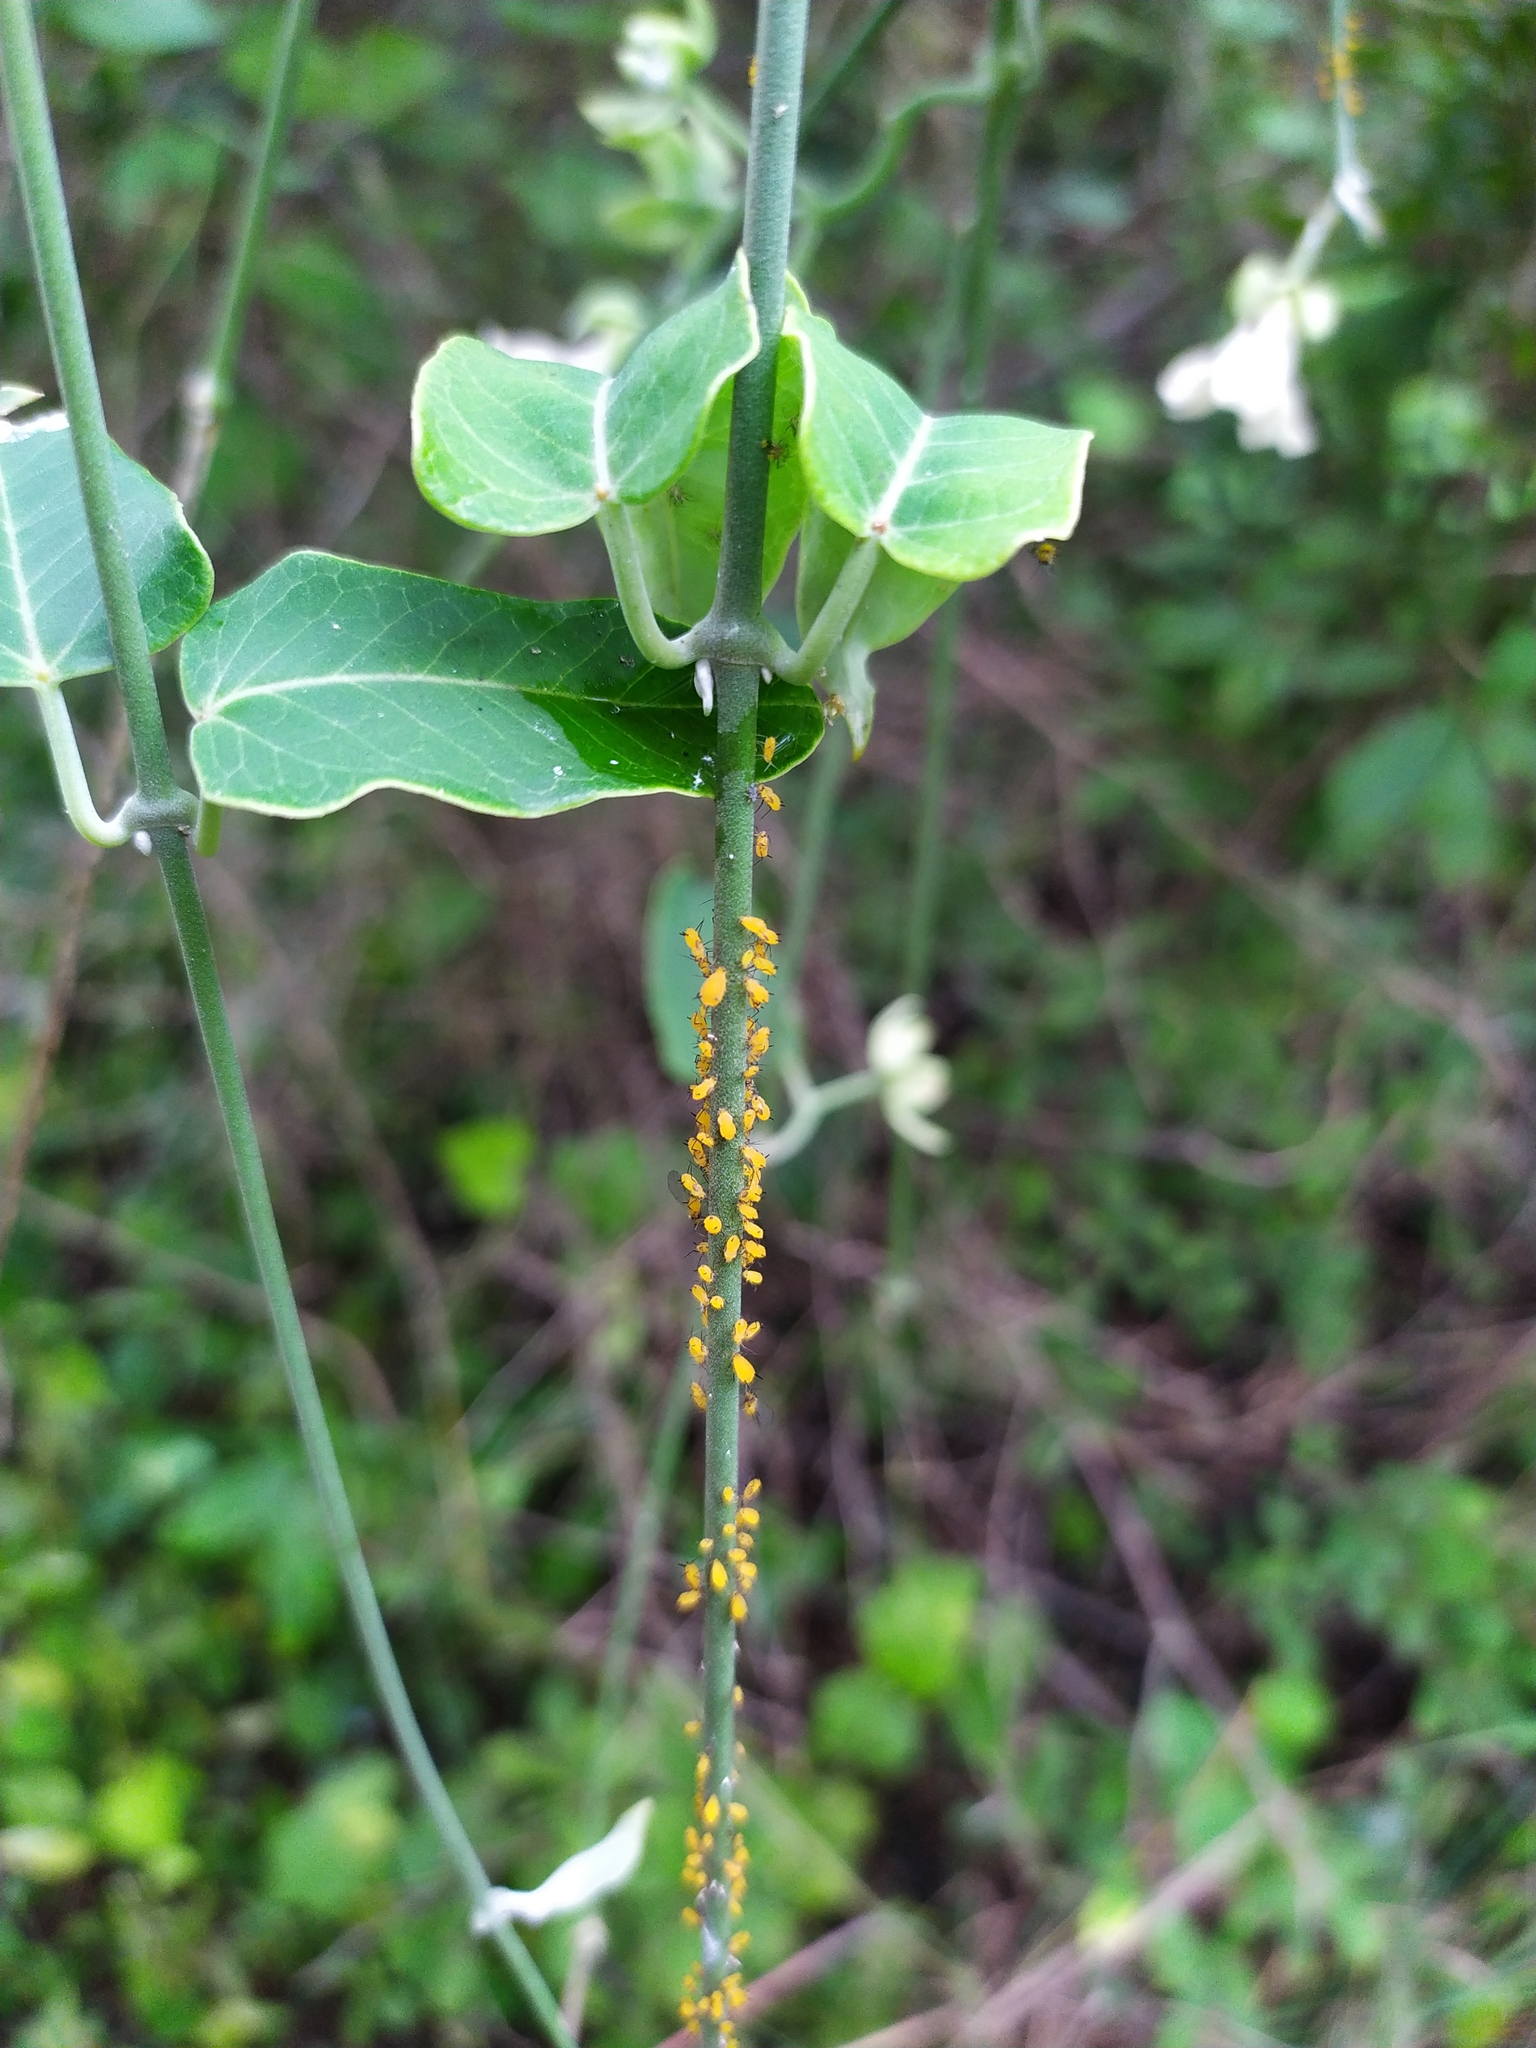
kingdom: Animalia
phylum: Arthropoda
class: Insecta
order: Hemiptera
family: Aphididae
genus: Aphis
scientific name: Aphis nerii
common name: Oleander aphid
